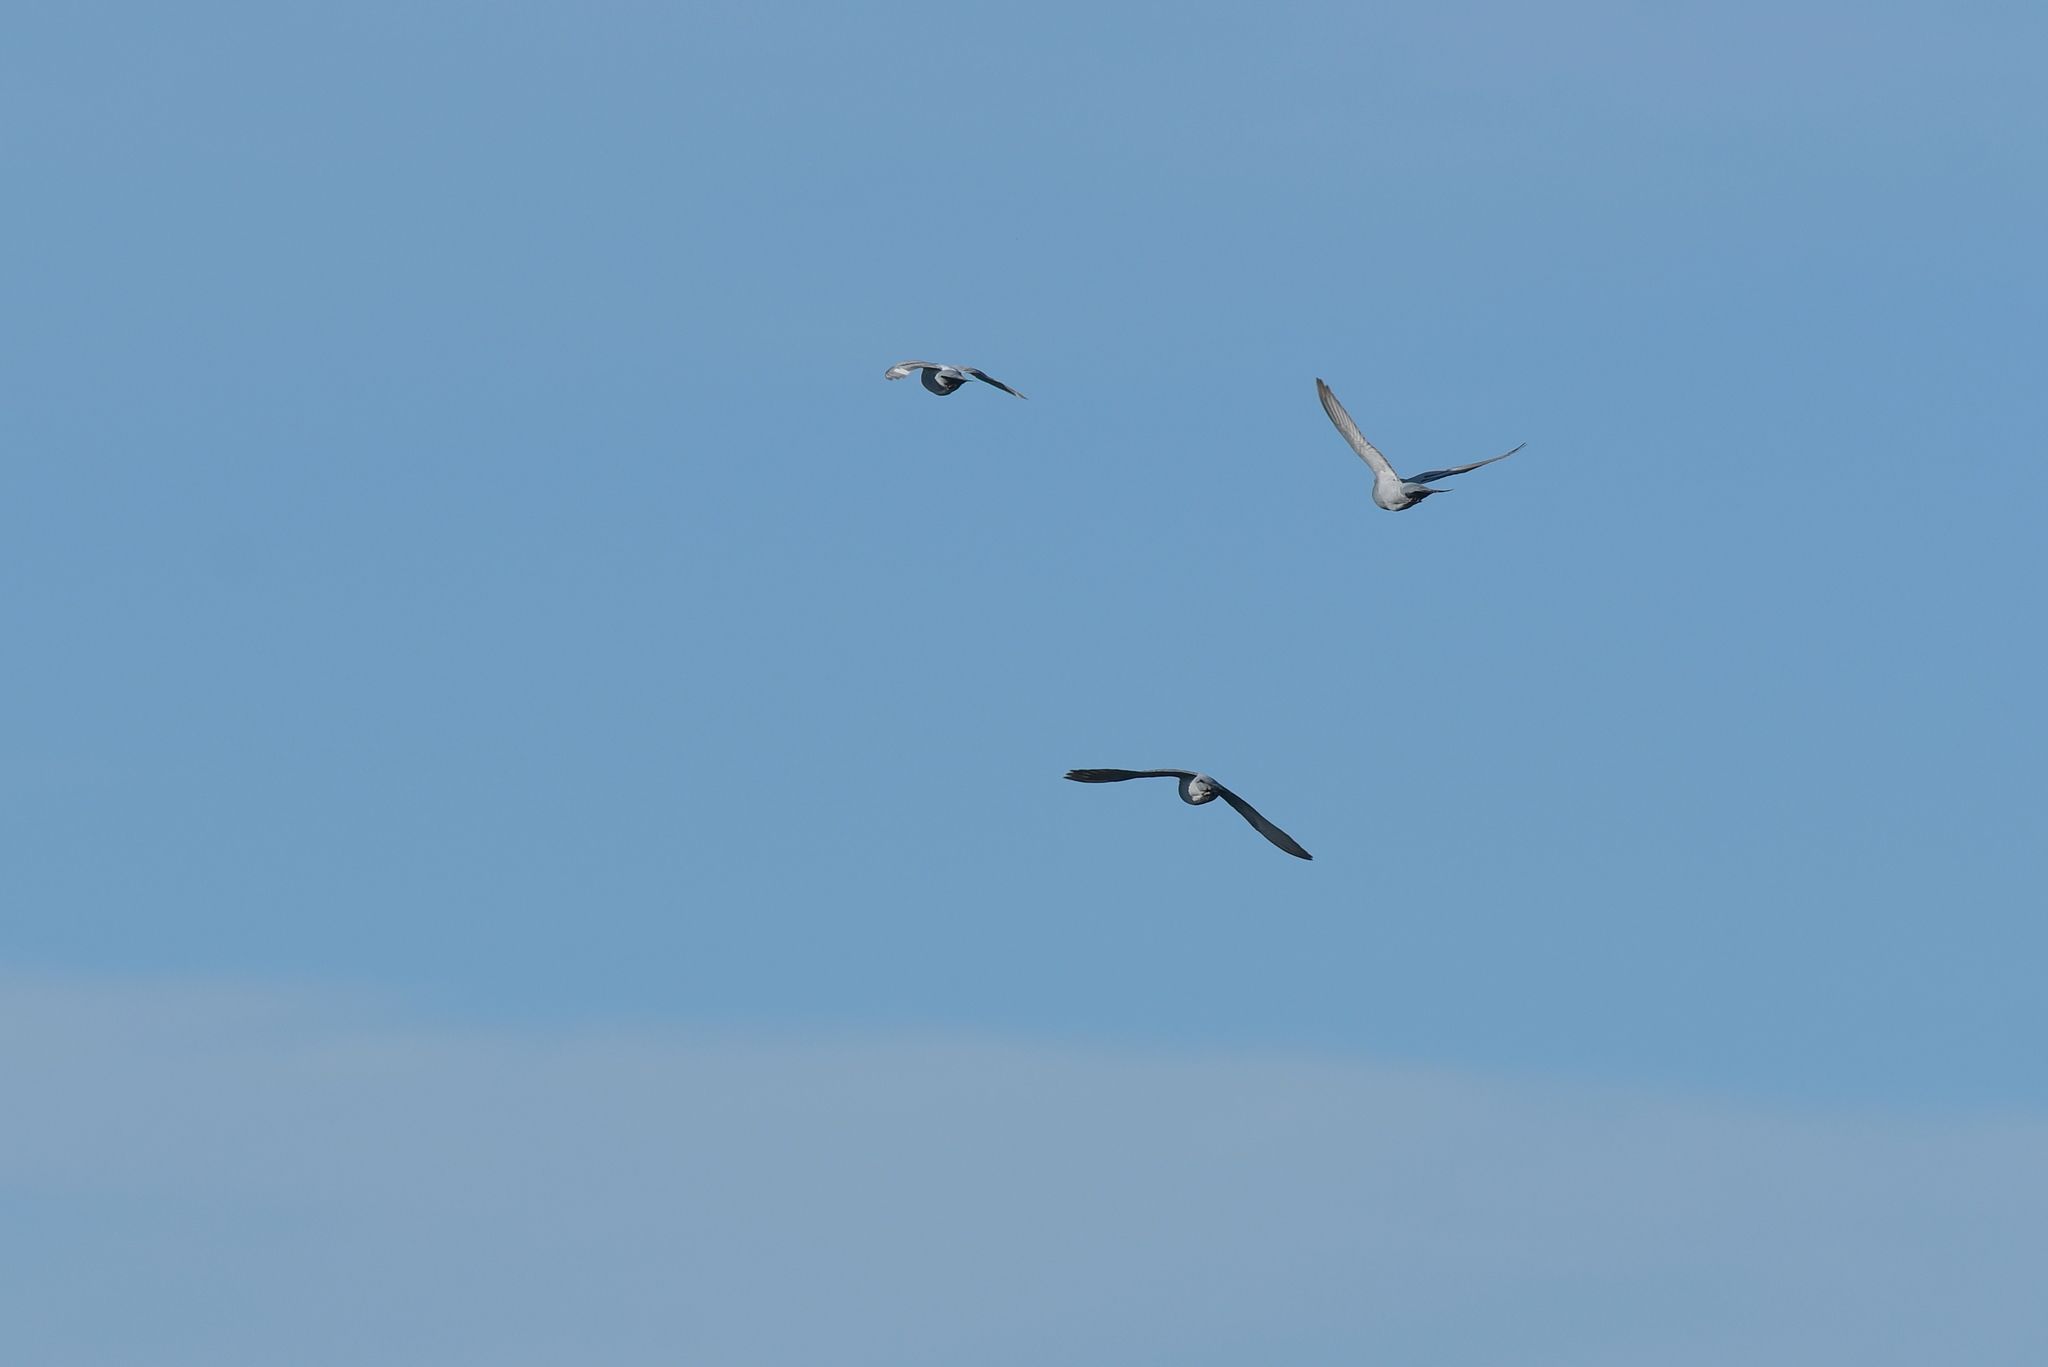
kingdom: Animalia
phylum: Chordata
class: Aves
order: Columbiformes
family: Columbidae
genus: Columba
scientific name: Columba livia
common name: Rock pigeon
